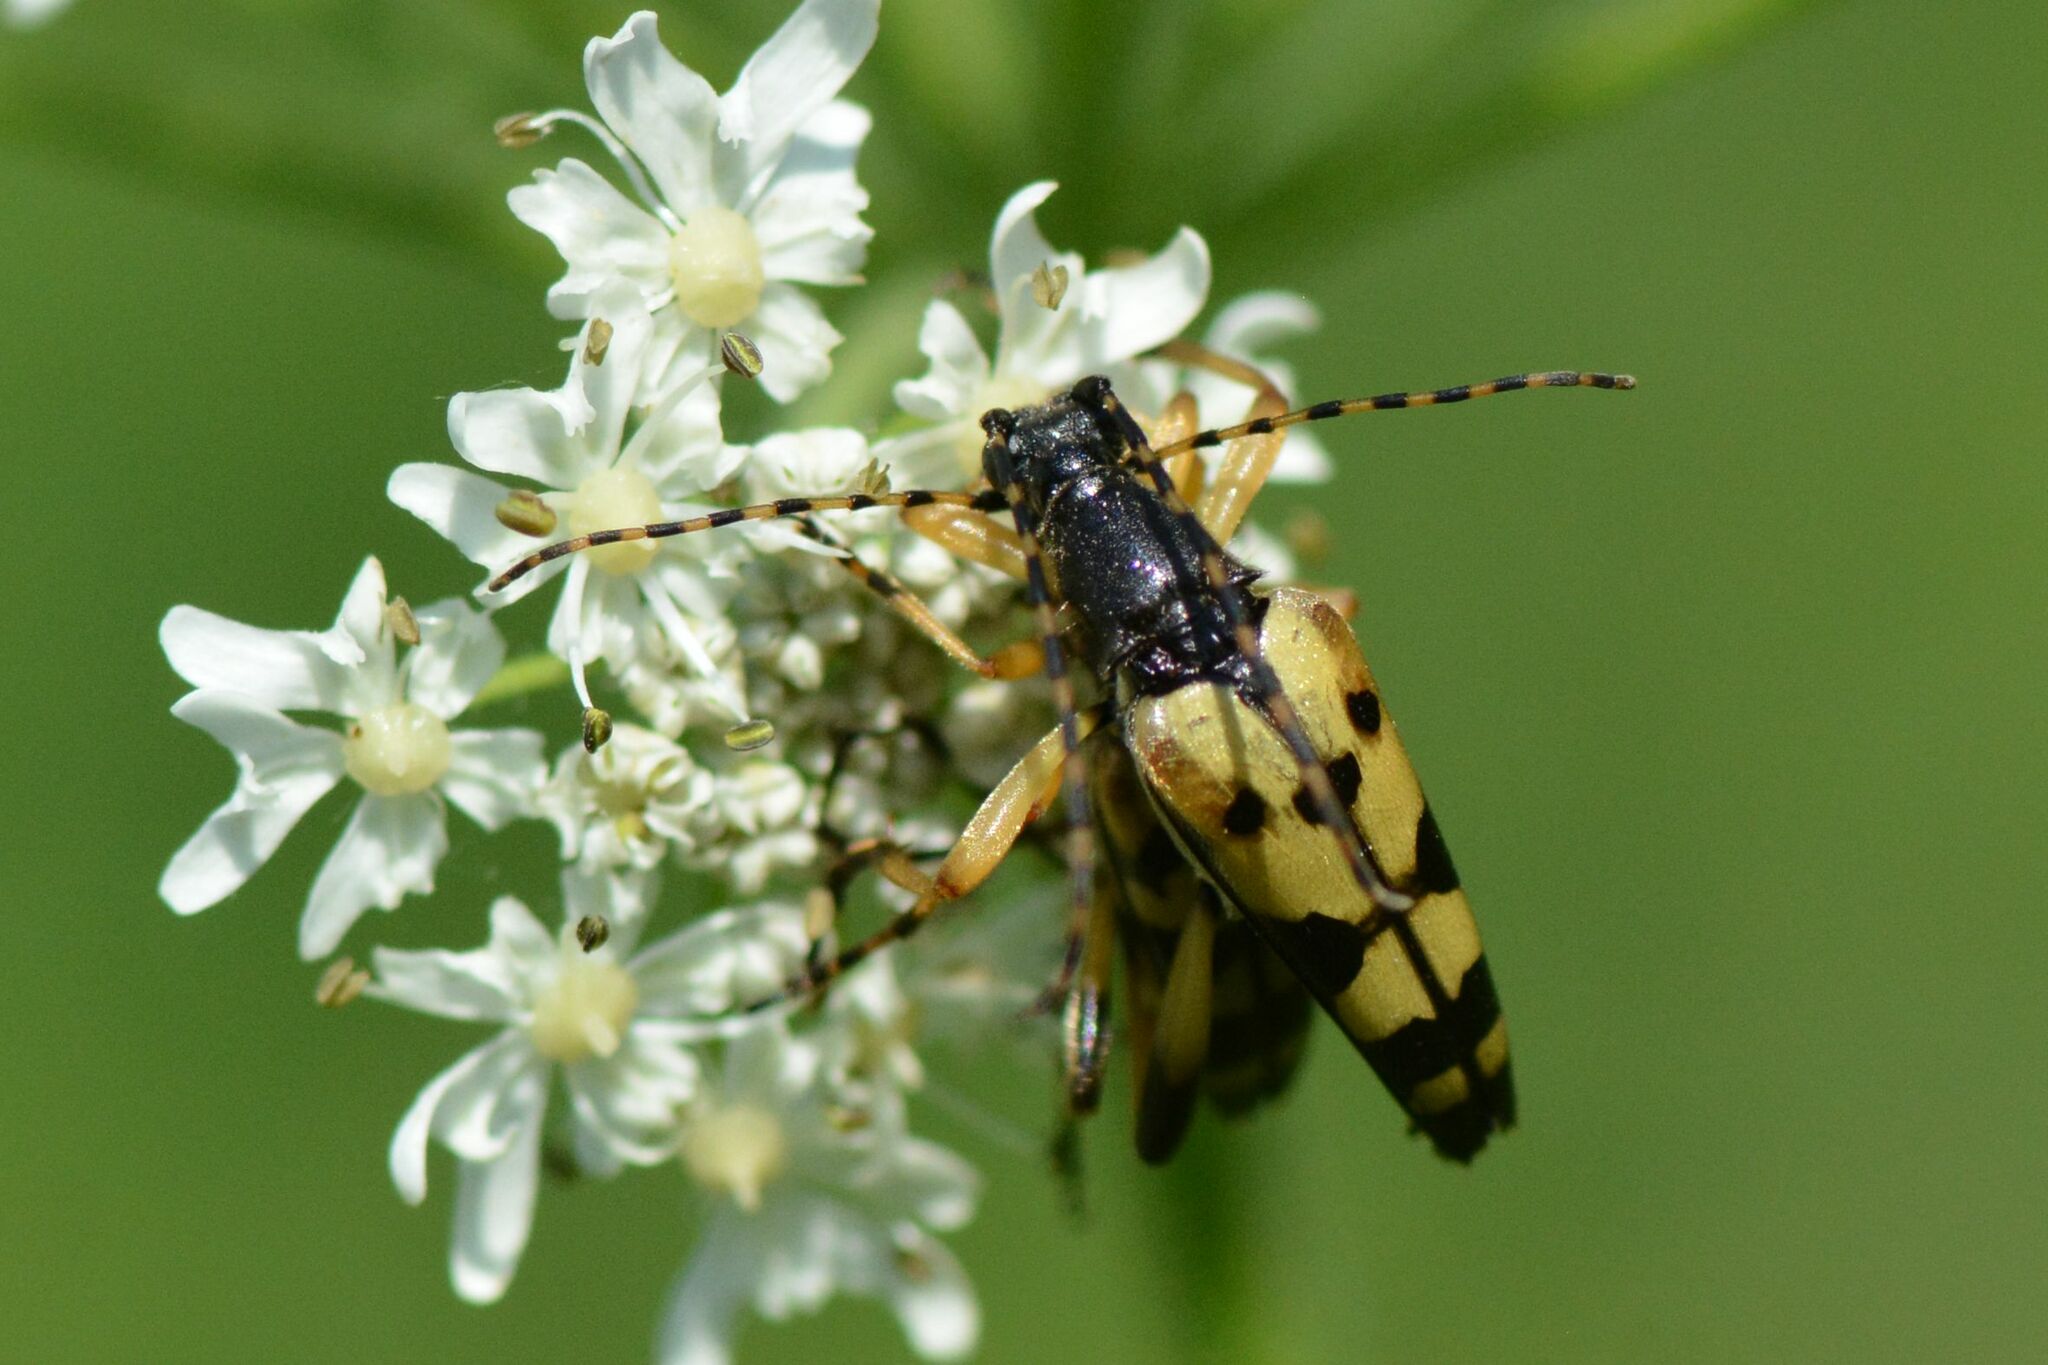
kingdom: Animalia
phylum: Arthropoda
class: Insecta
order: Coleoptera
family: Cerambycidae
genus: Rutpela
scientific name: Rutpela maculata
